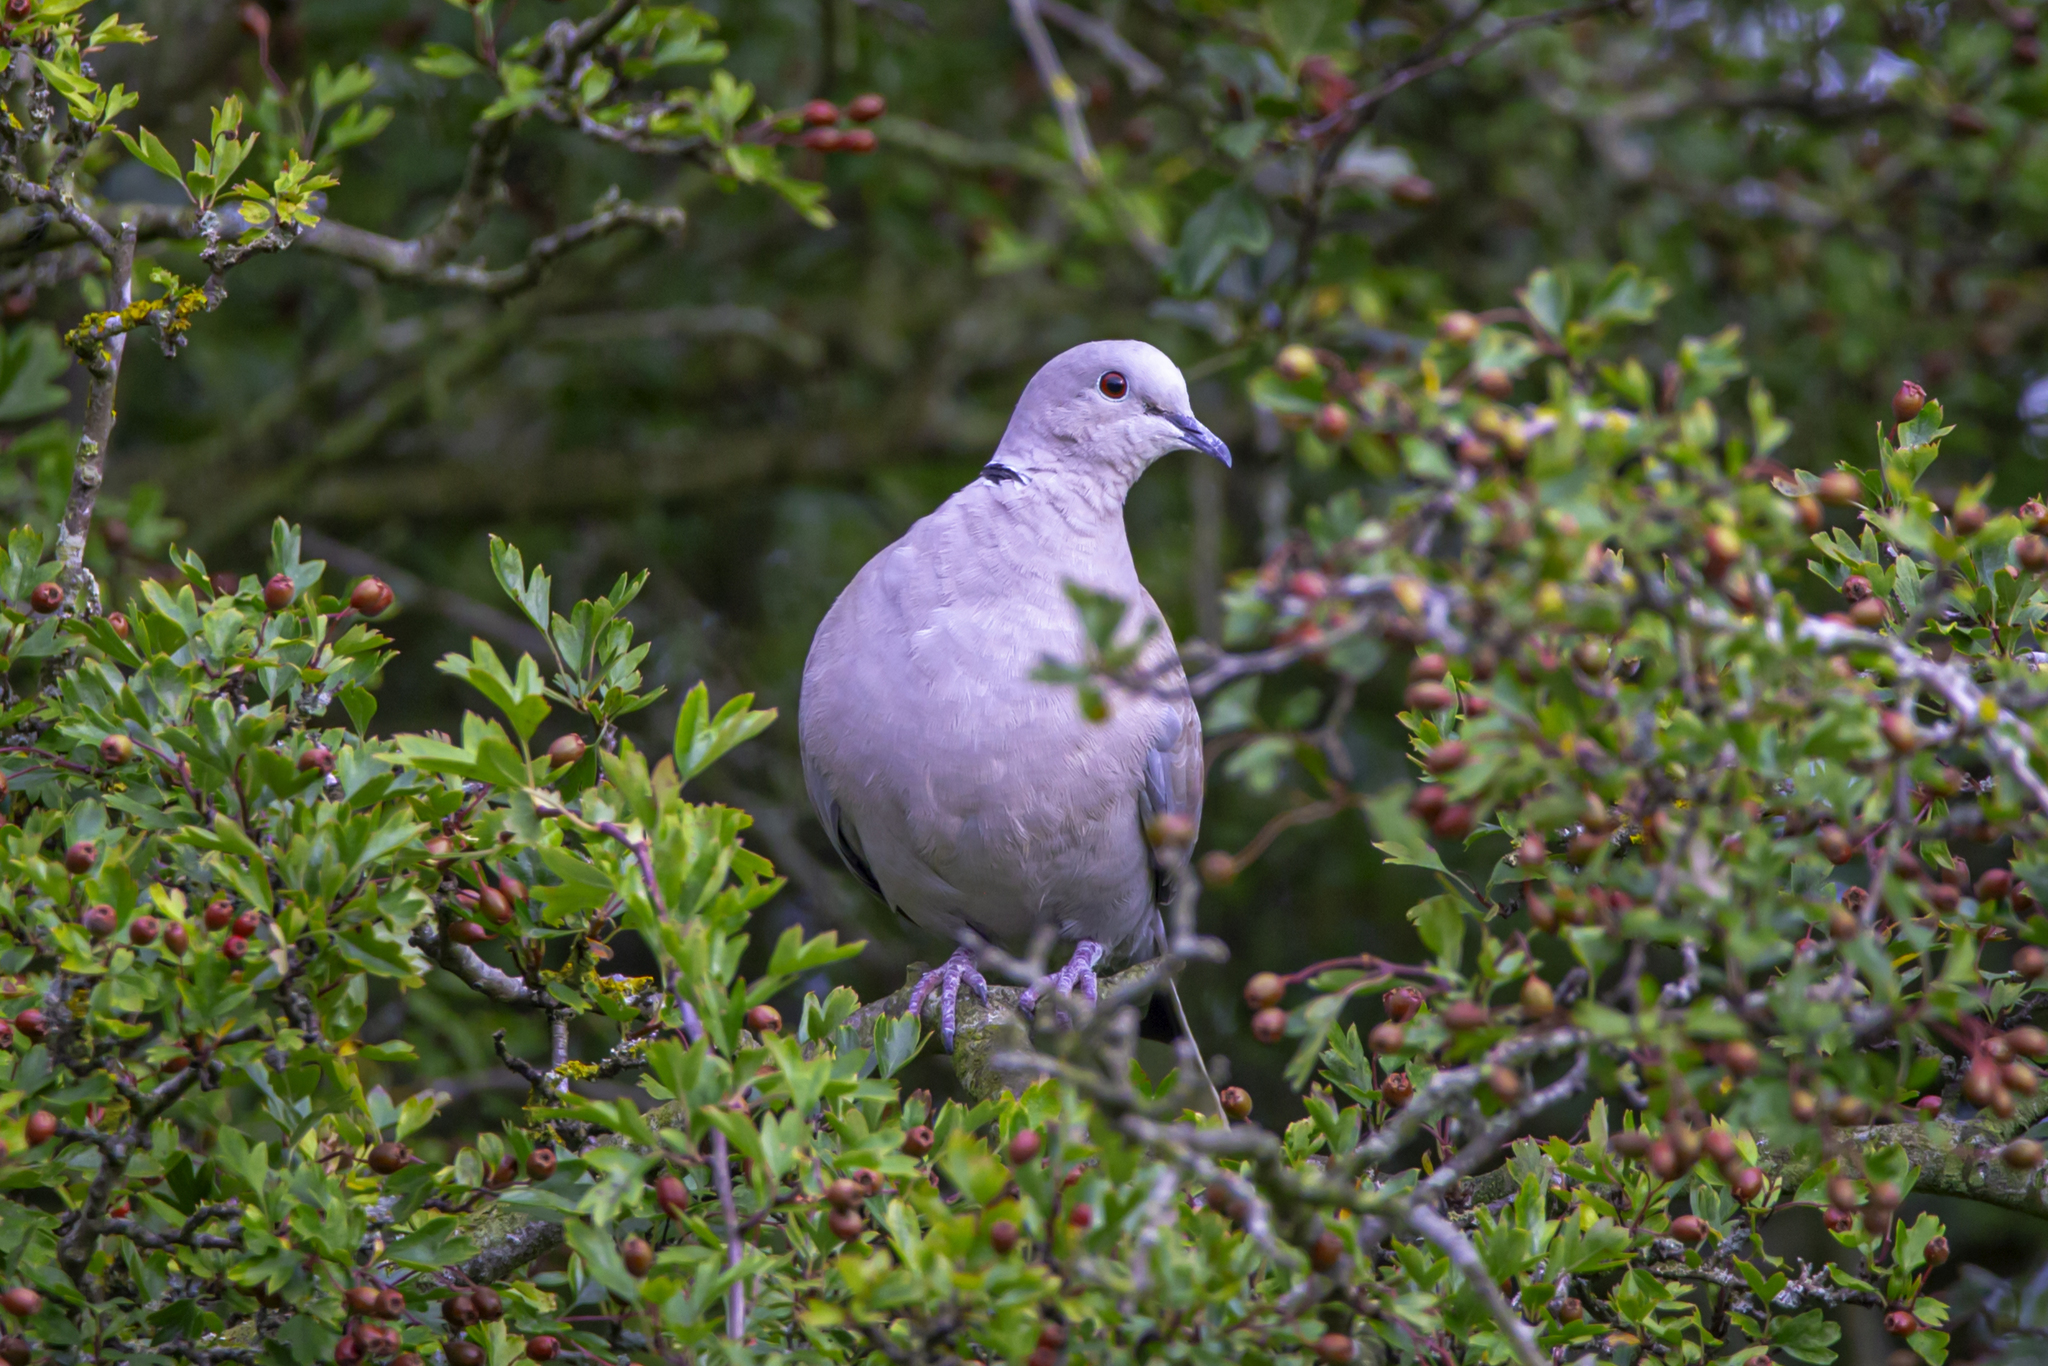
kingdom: Animalia
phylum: Chordata
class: Aves
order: Columbiformes
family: Columbidae
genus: Streptopelia
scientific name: Streptopelia decaocto
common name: Eurasian collared dove
